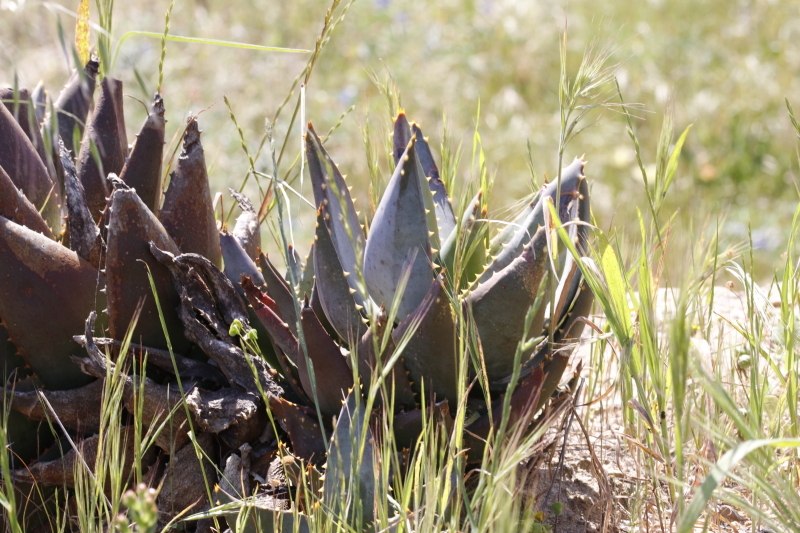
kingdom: Plantae
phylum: Tracheophyta
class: Liliopsida
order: Asparagales
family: Asphodelaceae
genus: Aloe
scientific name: Aloe perfoliata
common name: Mitra aloe
